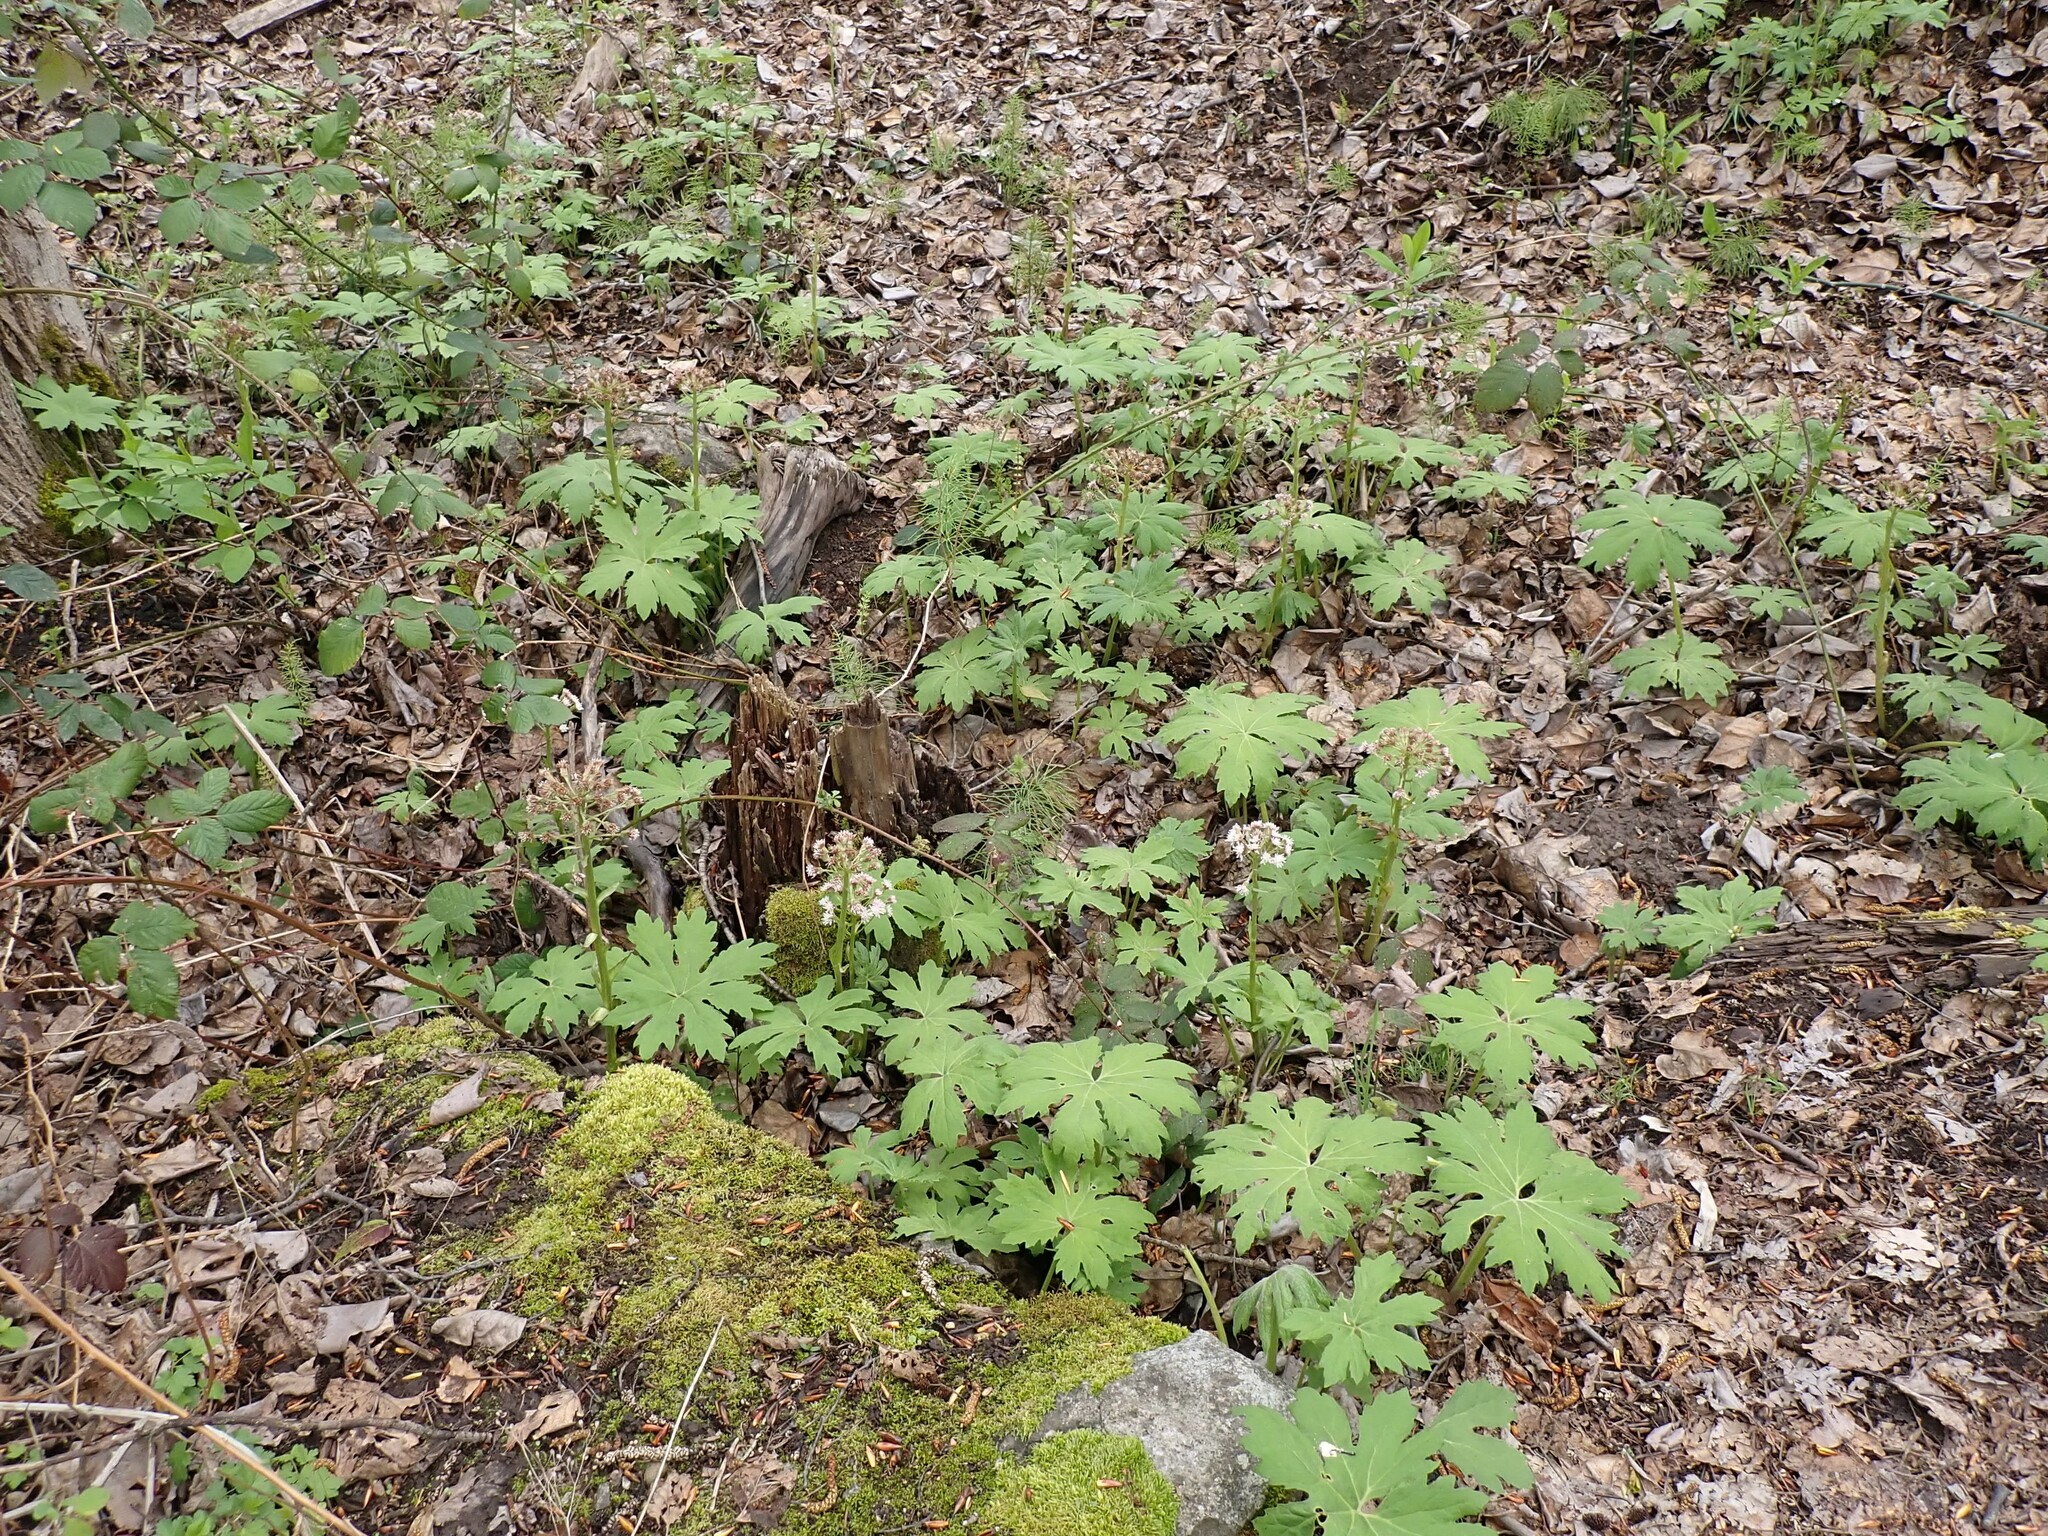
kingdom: Plantae
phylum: Tracheophyta
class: Magnoliopsida
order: Asterales
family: Asteraceae
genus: Petasites
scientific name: Petasites frigidus
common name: Arctic butterbur
